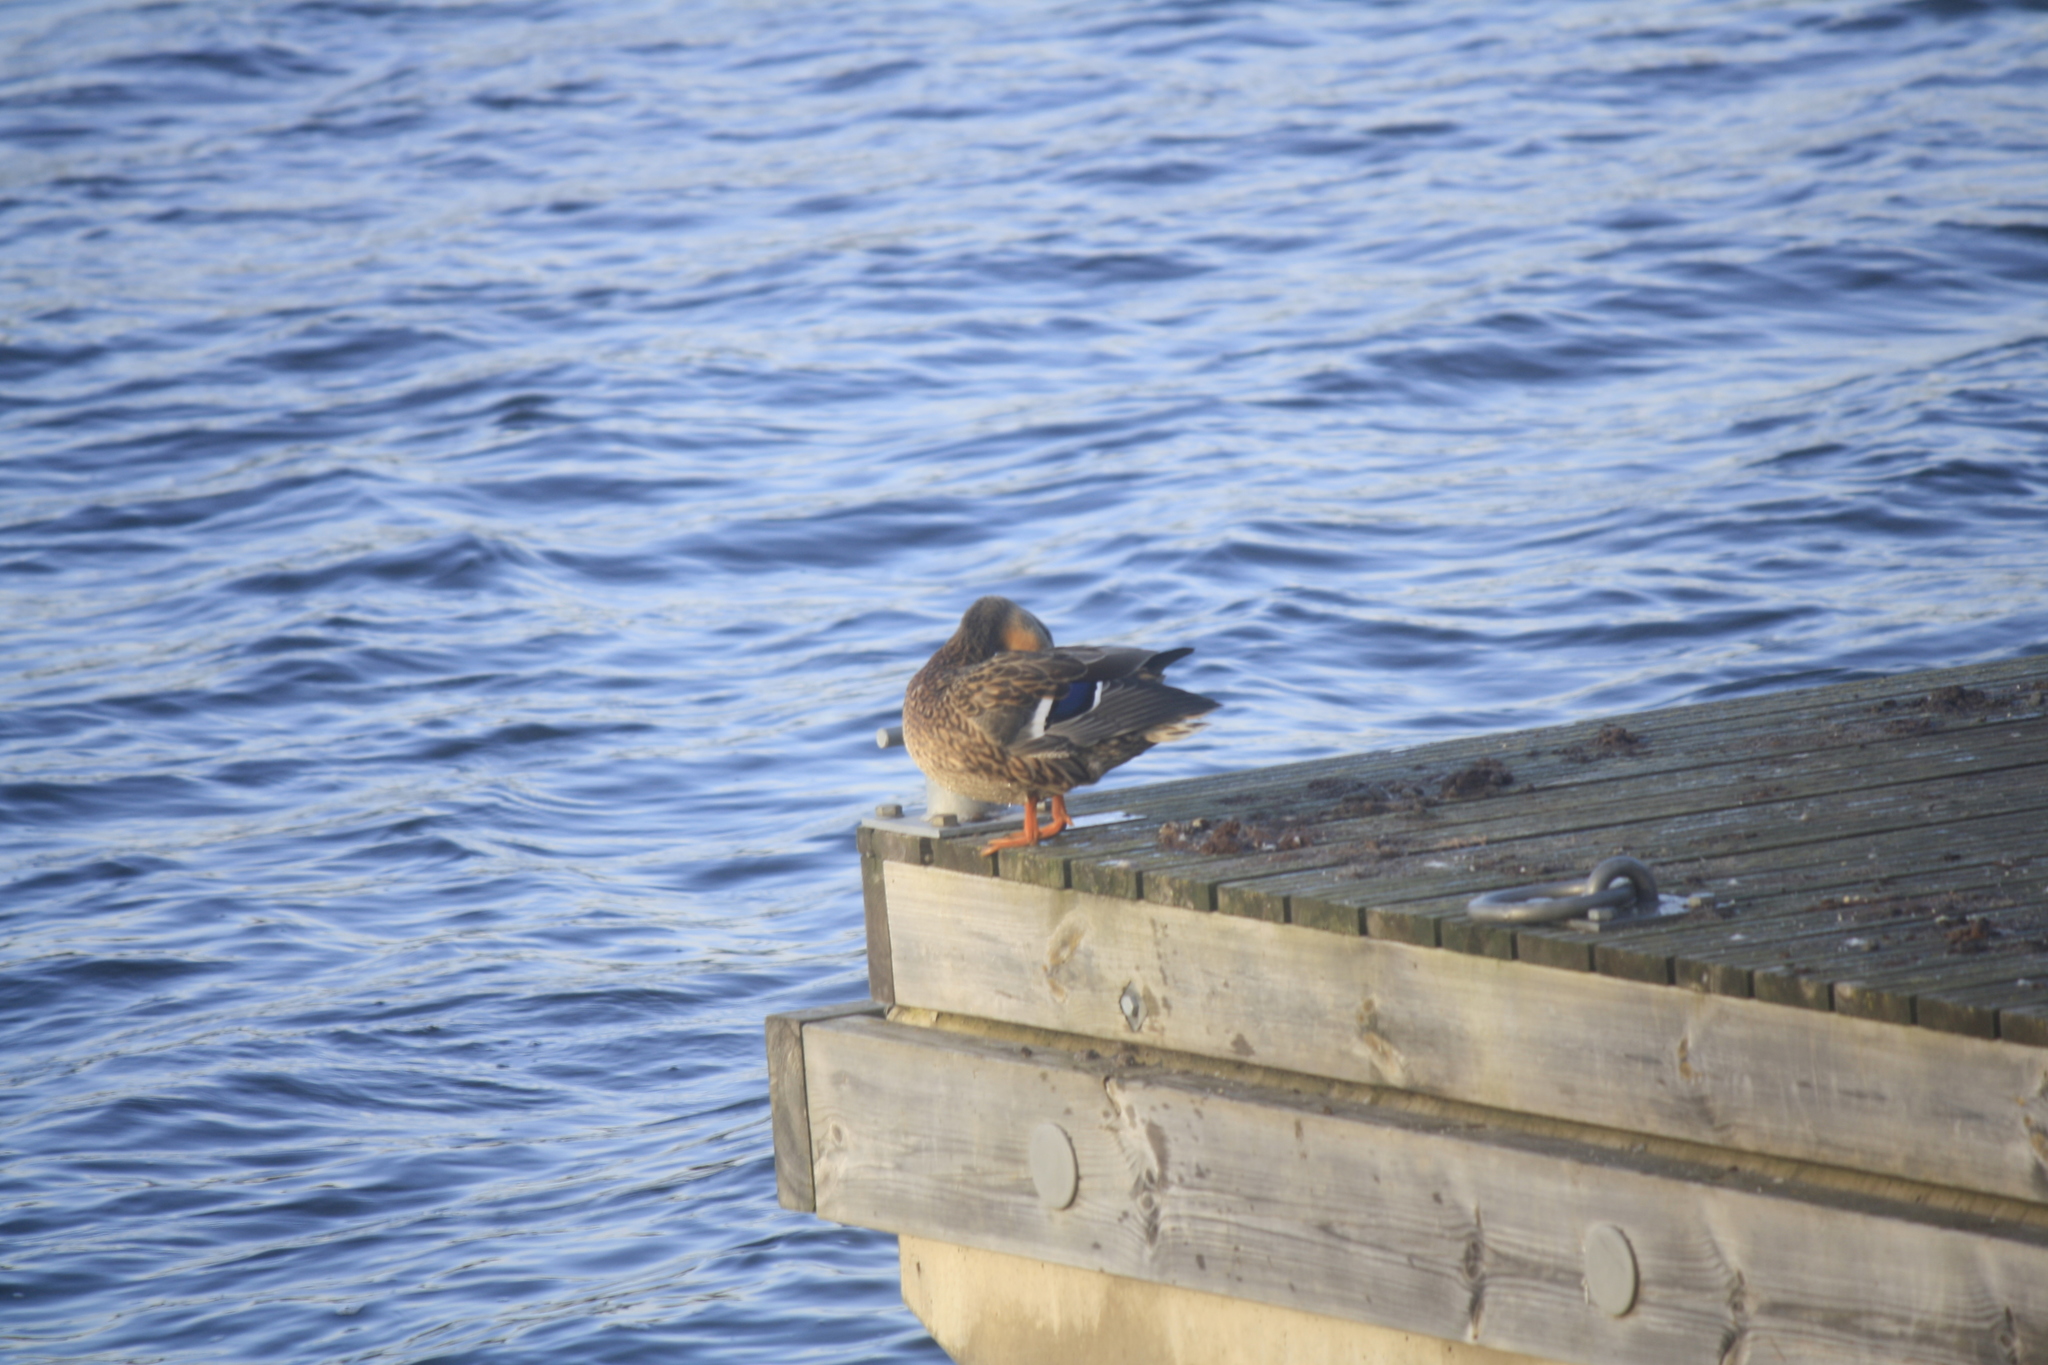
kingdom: Animalia
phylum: Chordata
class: Aves
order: Anseriformes
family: Anatidae
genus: Anas
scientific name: Anas platyrhynchos
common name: Mallard
